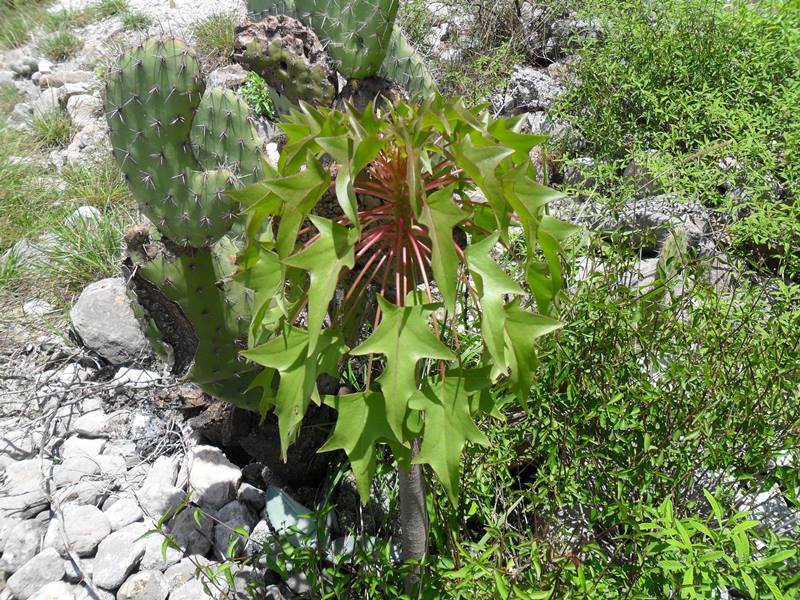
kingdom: Plantae
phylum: Tracheophyta
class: Magnoliopsida
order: Asterales
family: Asteraceae
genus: Pittocaulon
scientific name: Pittocaulon praecox
